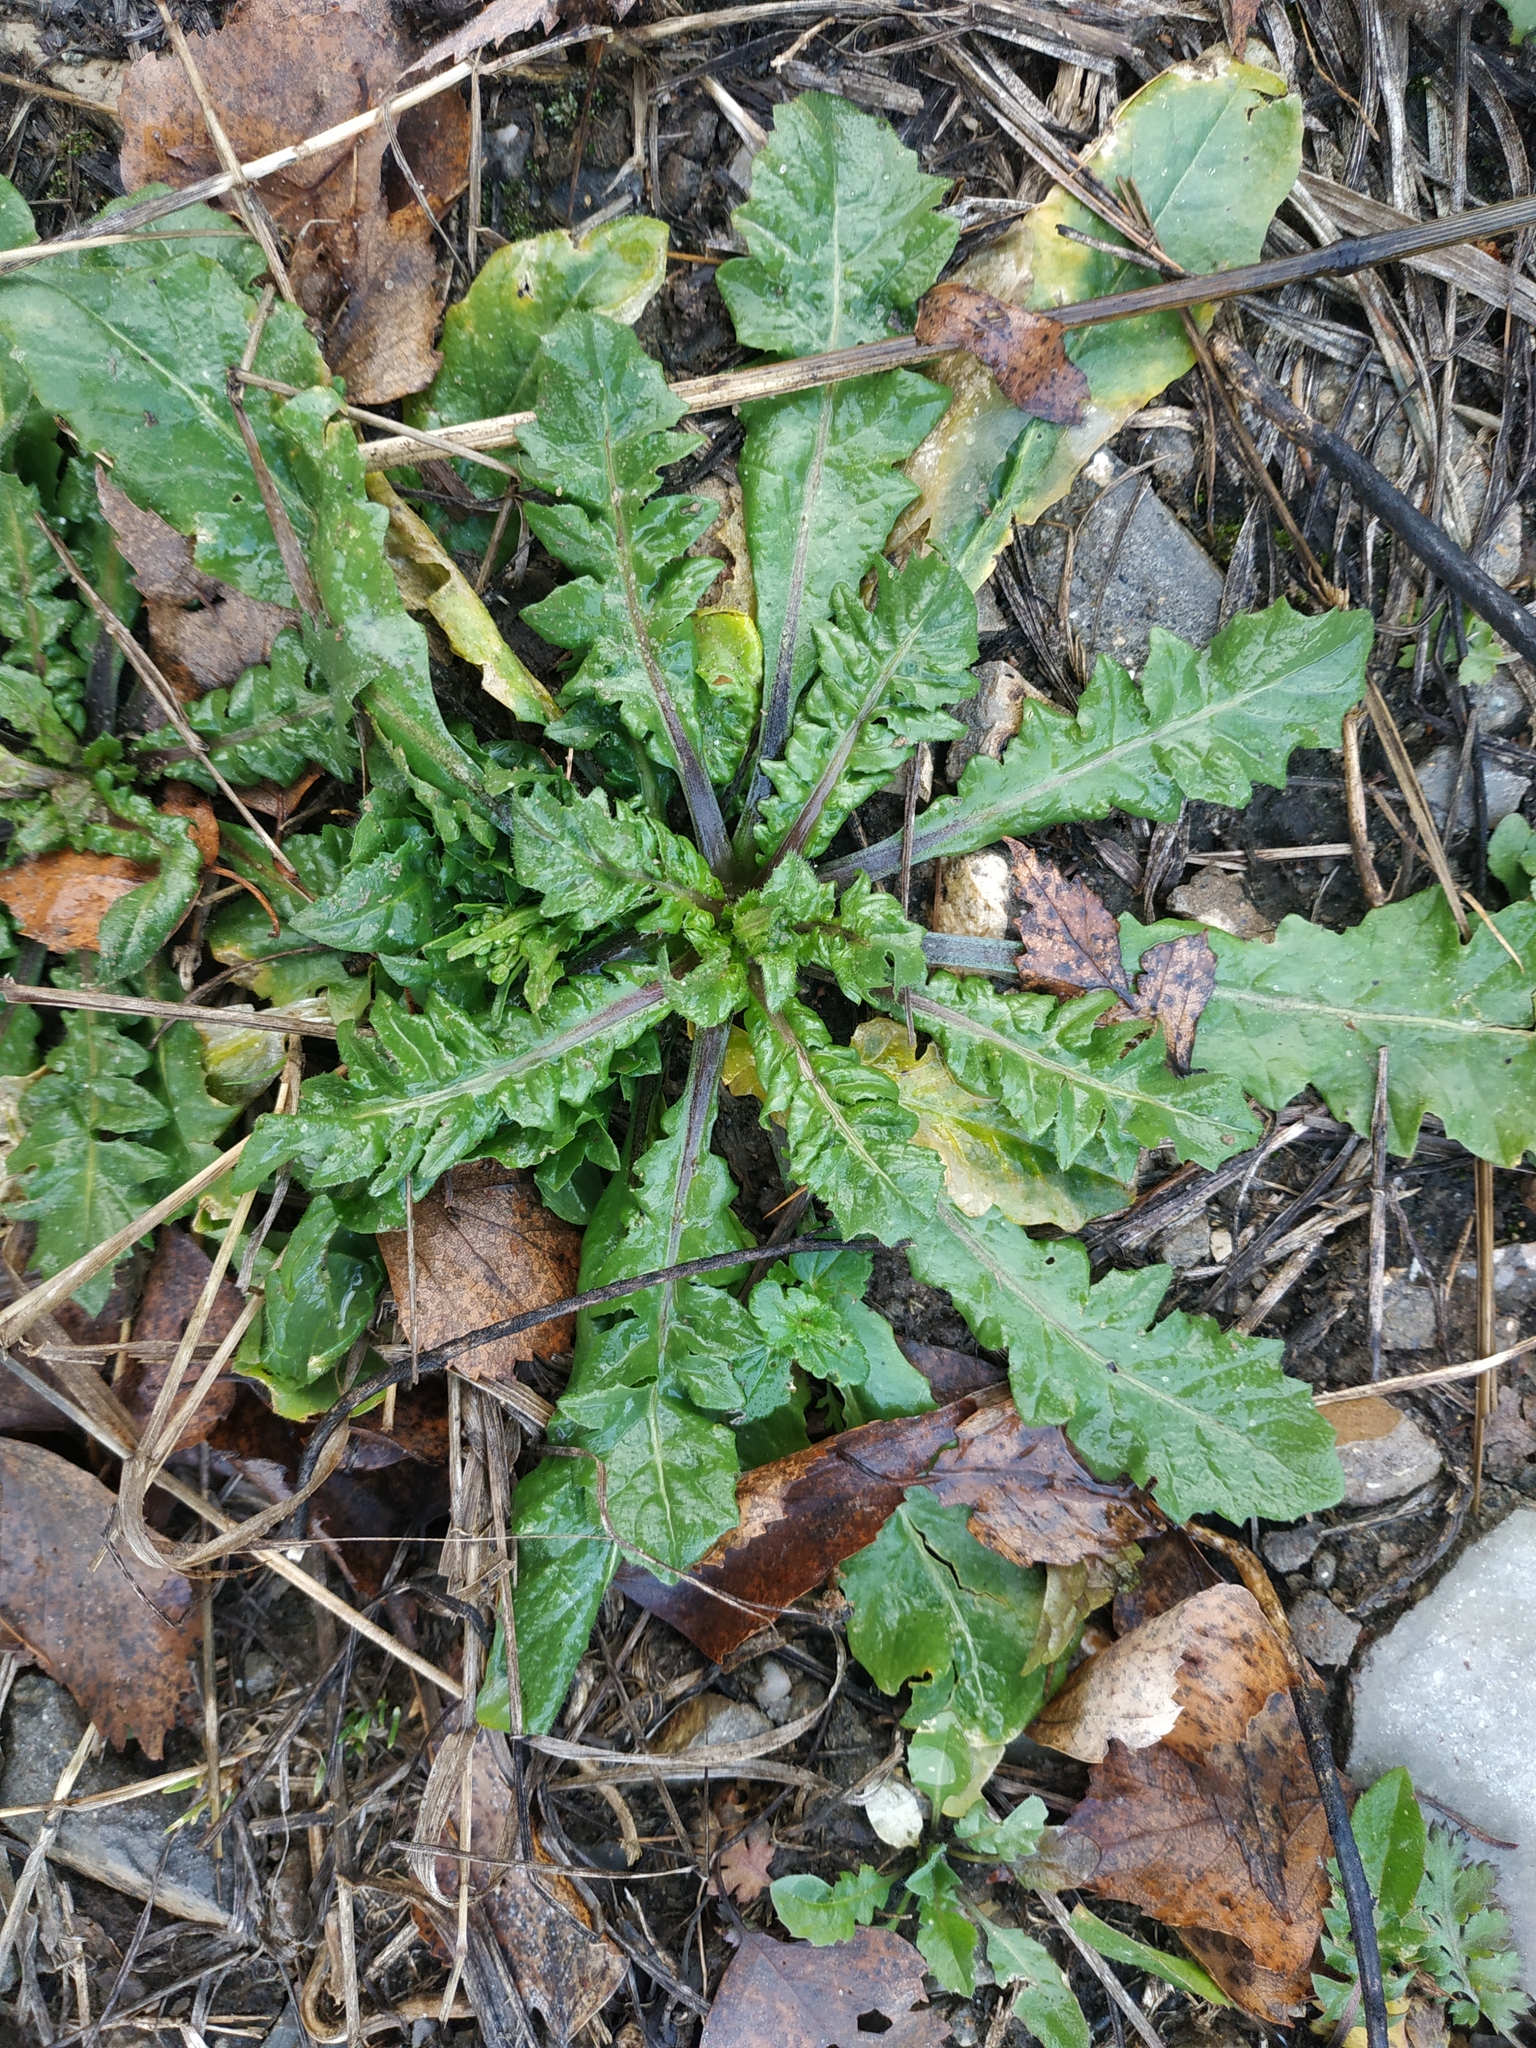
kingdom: Plantae
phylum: Tracheophyta
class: Magnoliopsida
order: Brassicales
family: Brassicaceae
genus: Capsella
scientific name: Capsella bursa-pastoris
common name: Shepherd's purse
